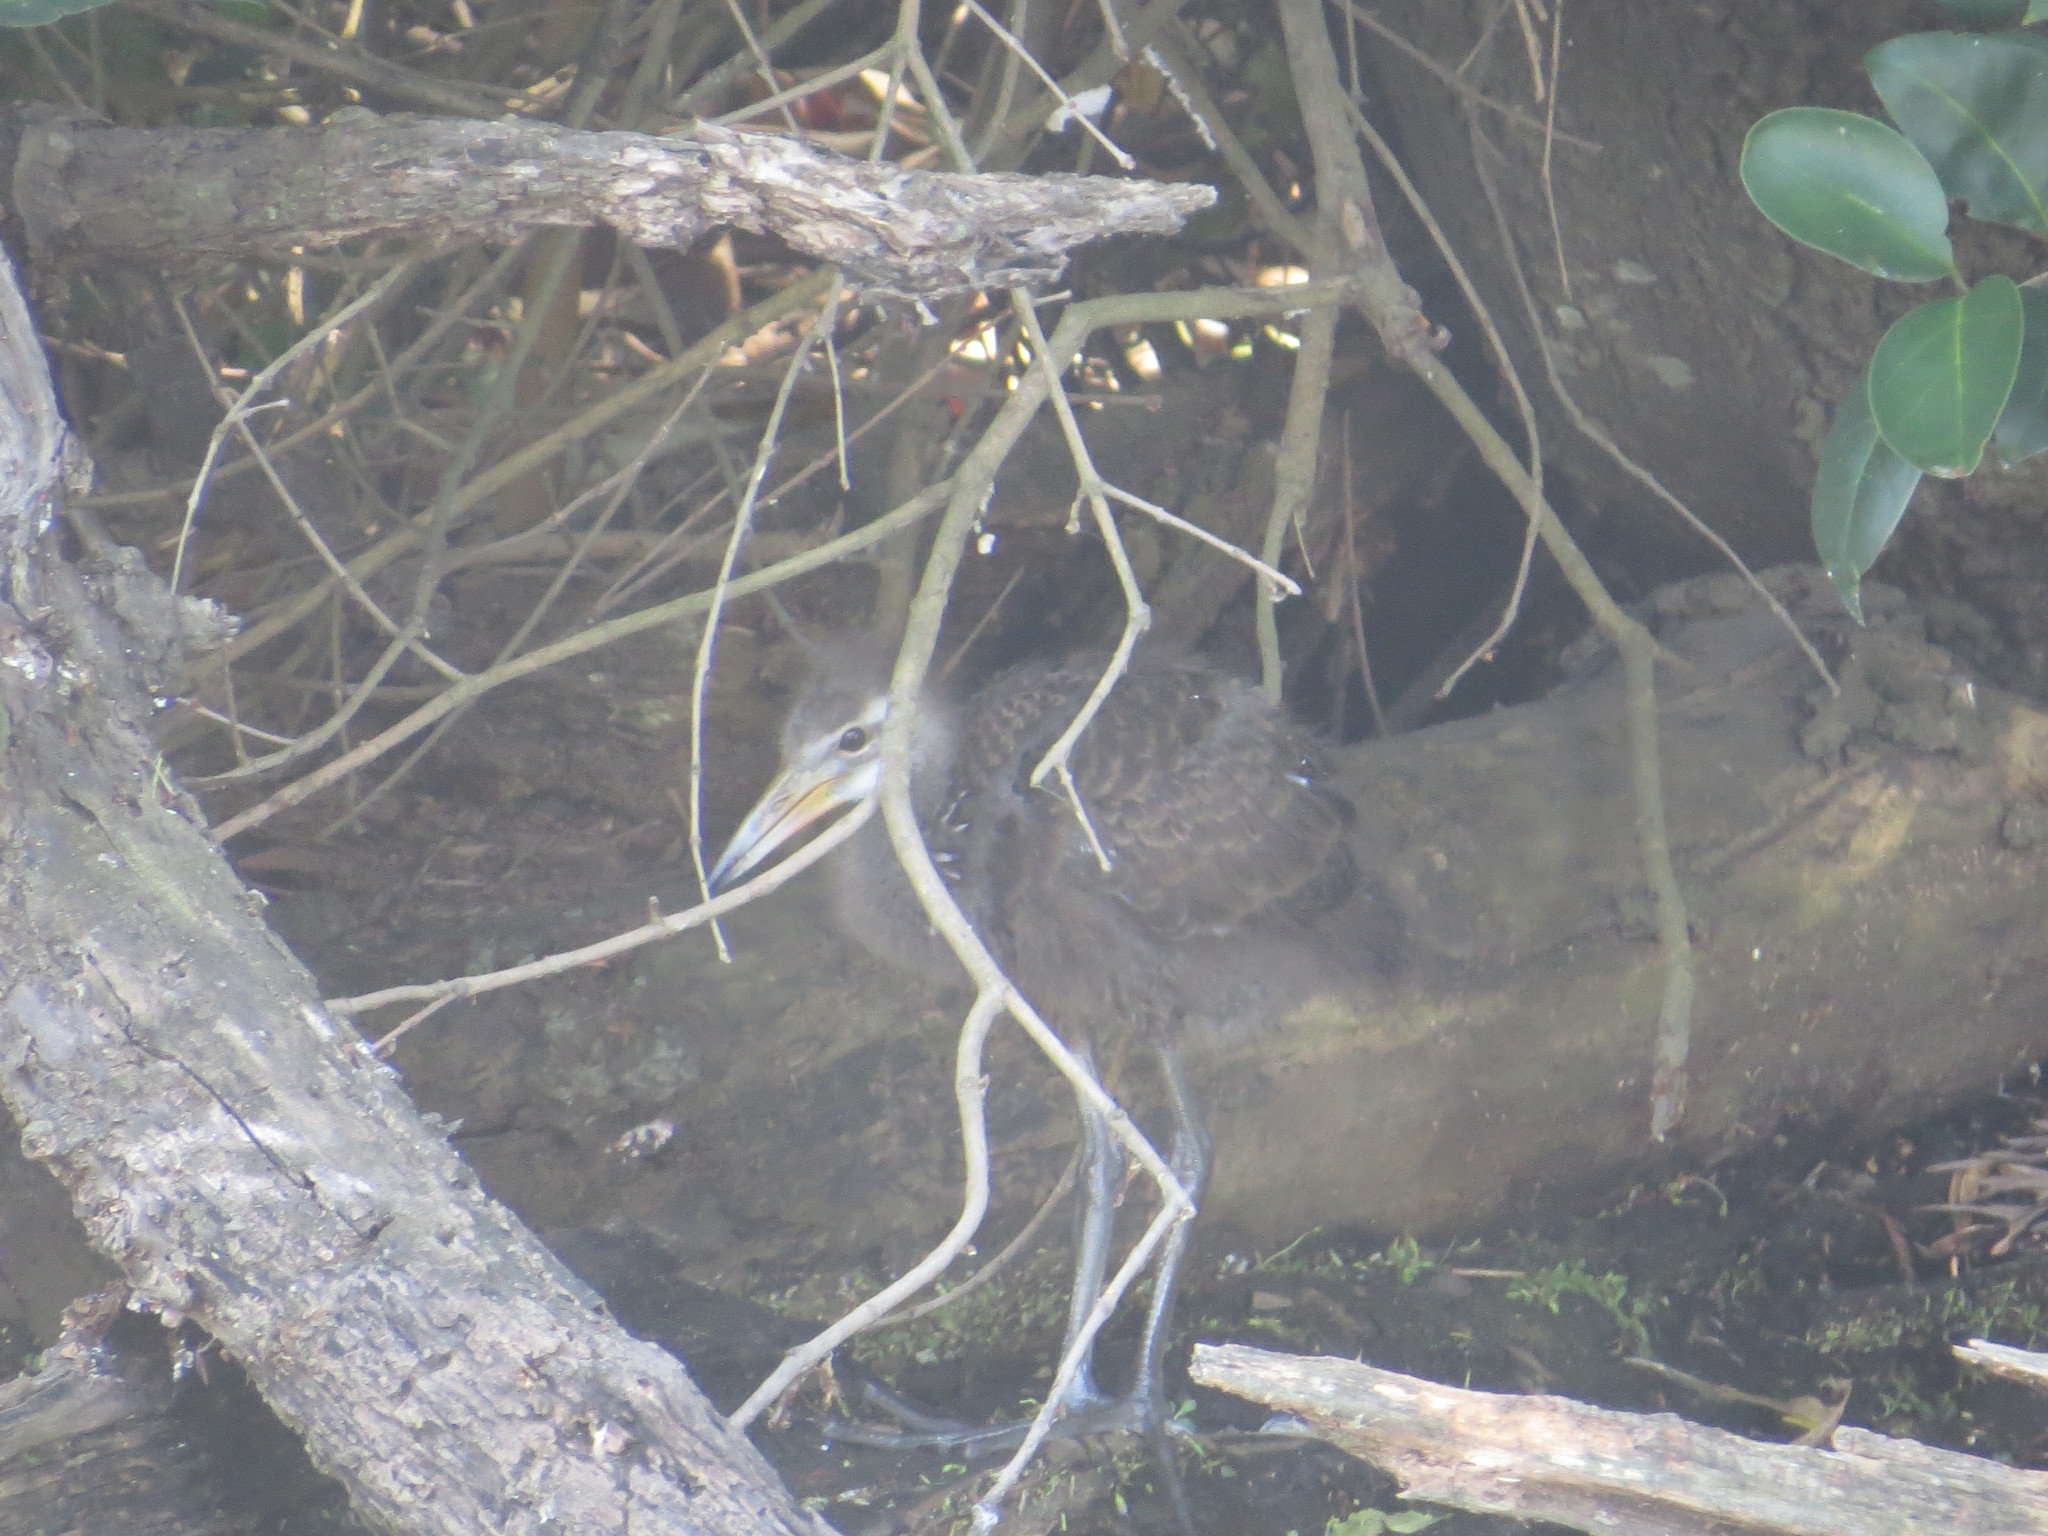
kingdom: Animalia
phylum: Chordata
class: Aves
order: Gruiformes
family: Aramidae
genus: Aramus
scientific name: Aramus guarauna
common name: Limpkin
